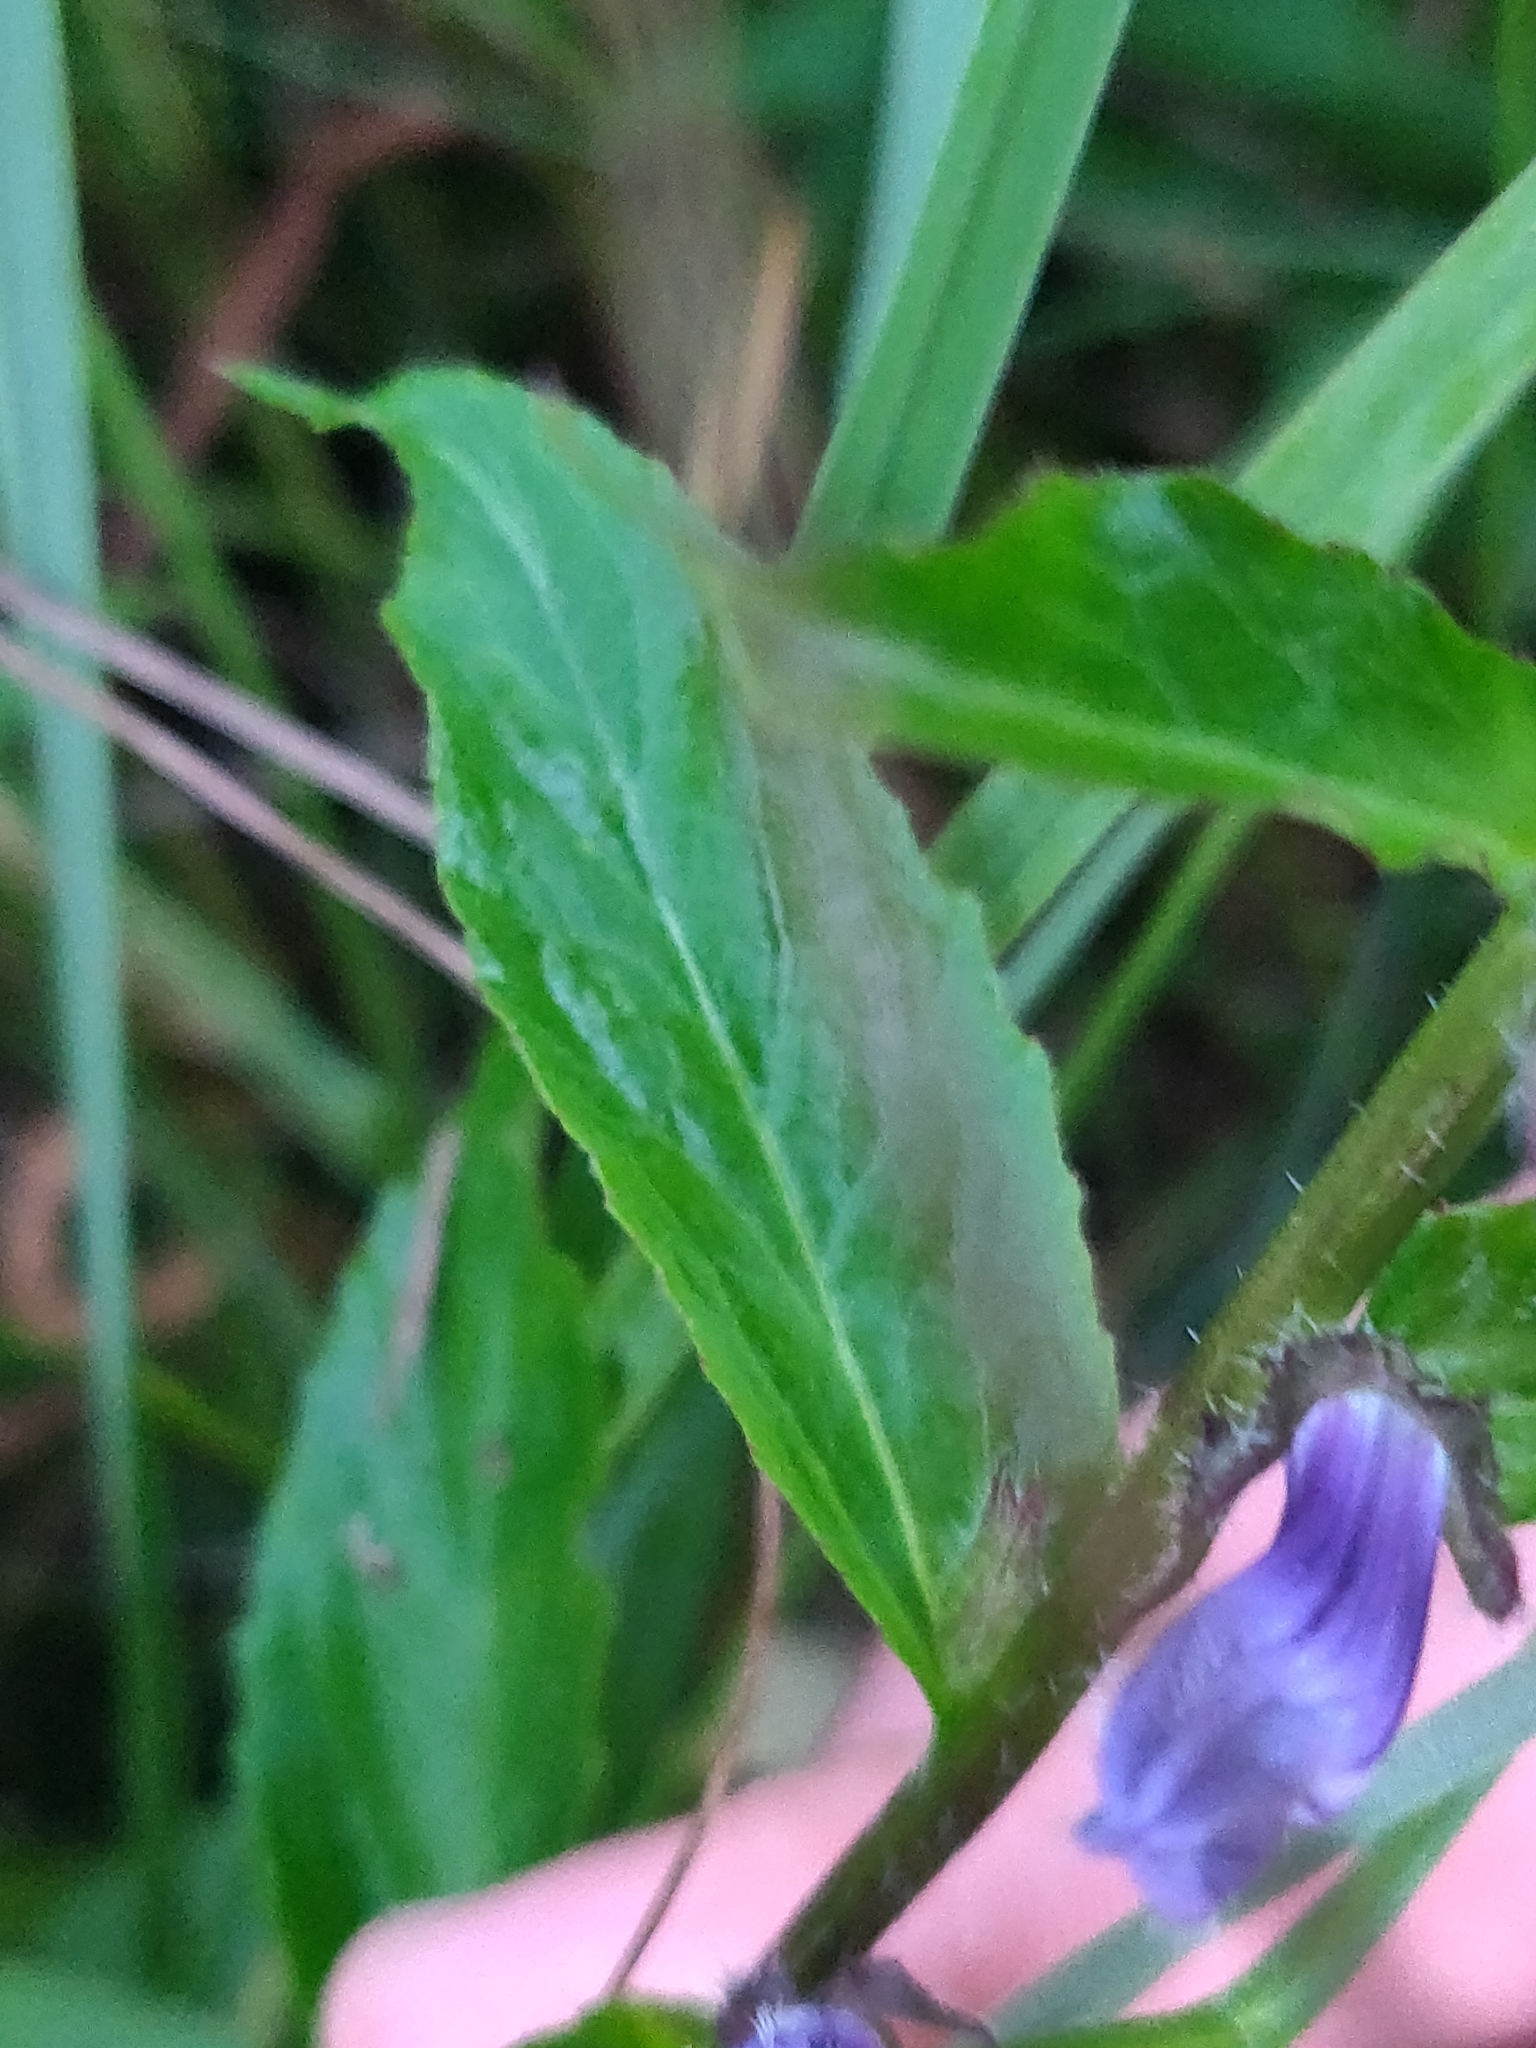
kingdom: Plantae
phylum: Tracheophyta
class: Magnoliopsida
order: Asterales
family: Campanulaceae
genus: Lobelia
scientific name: Lobelia siphilitica
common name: Great lobelia
